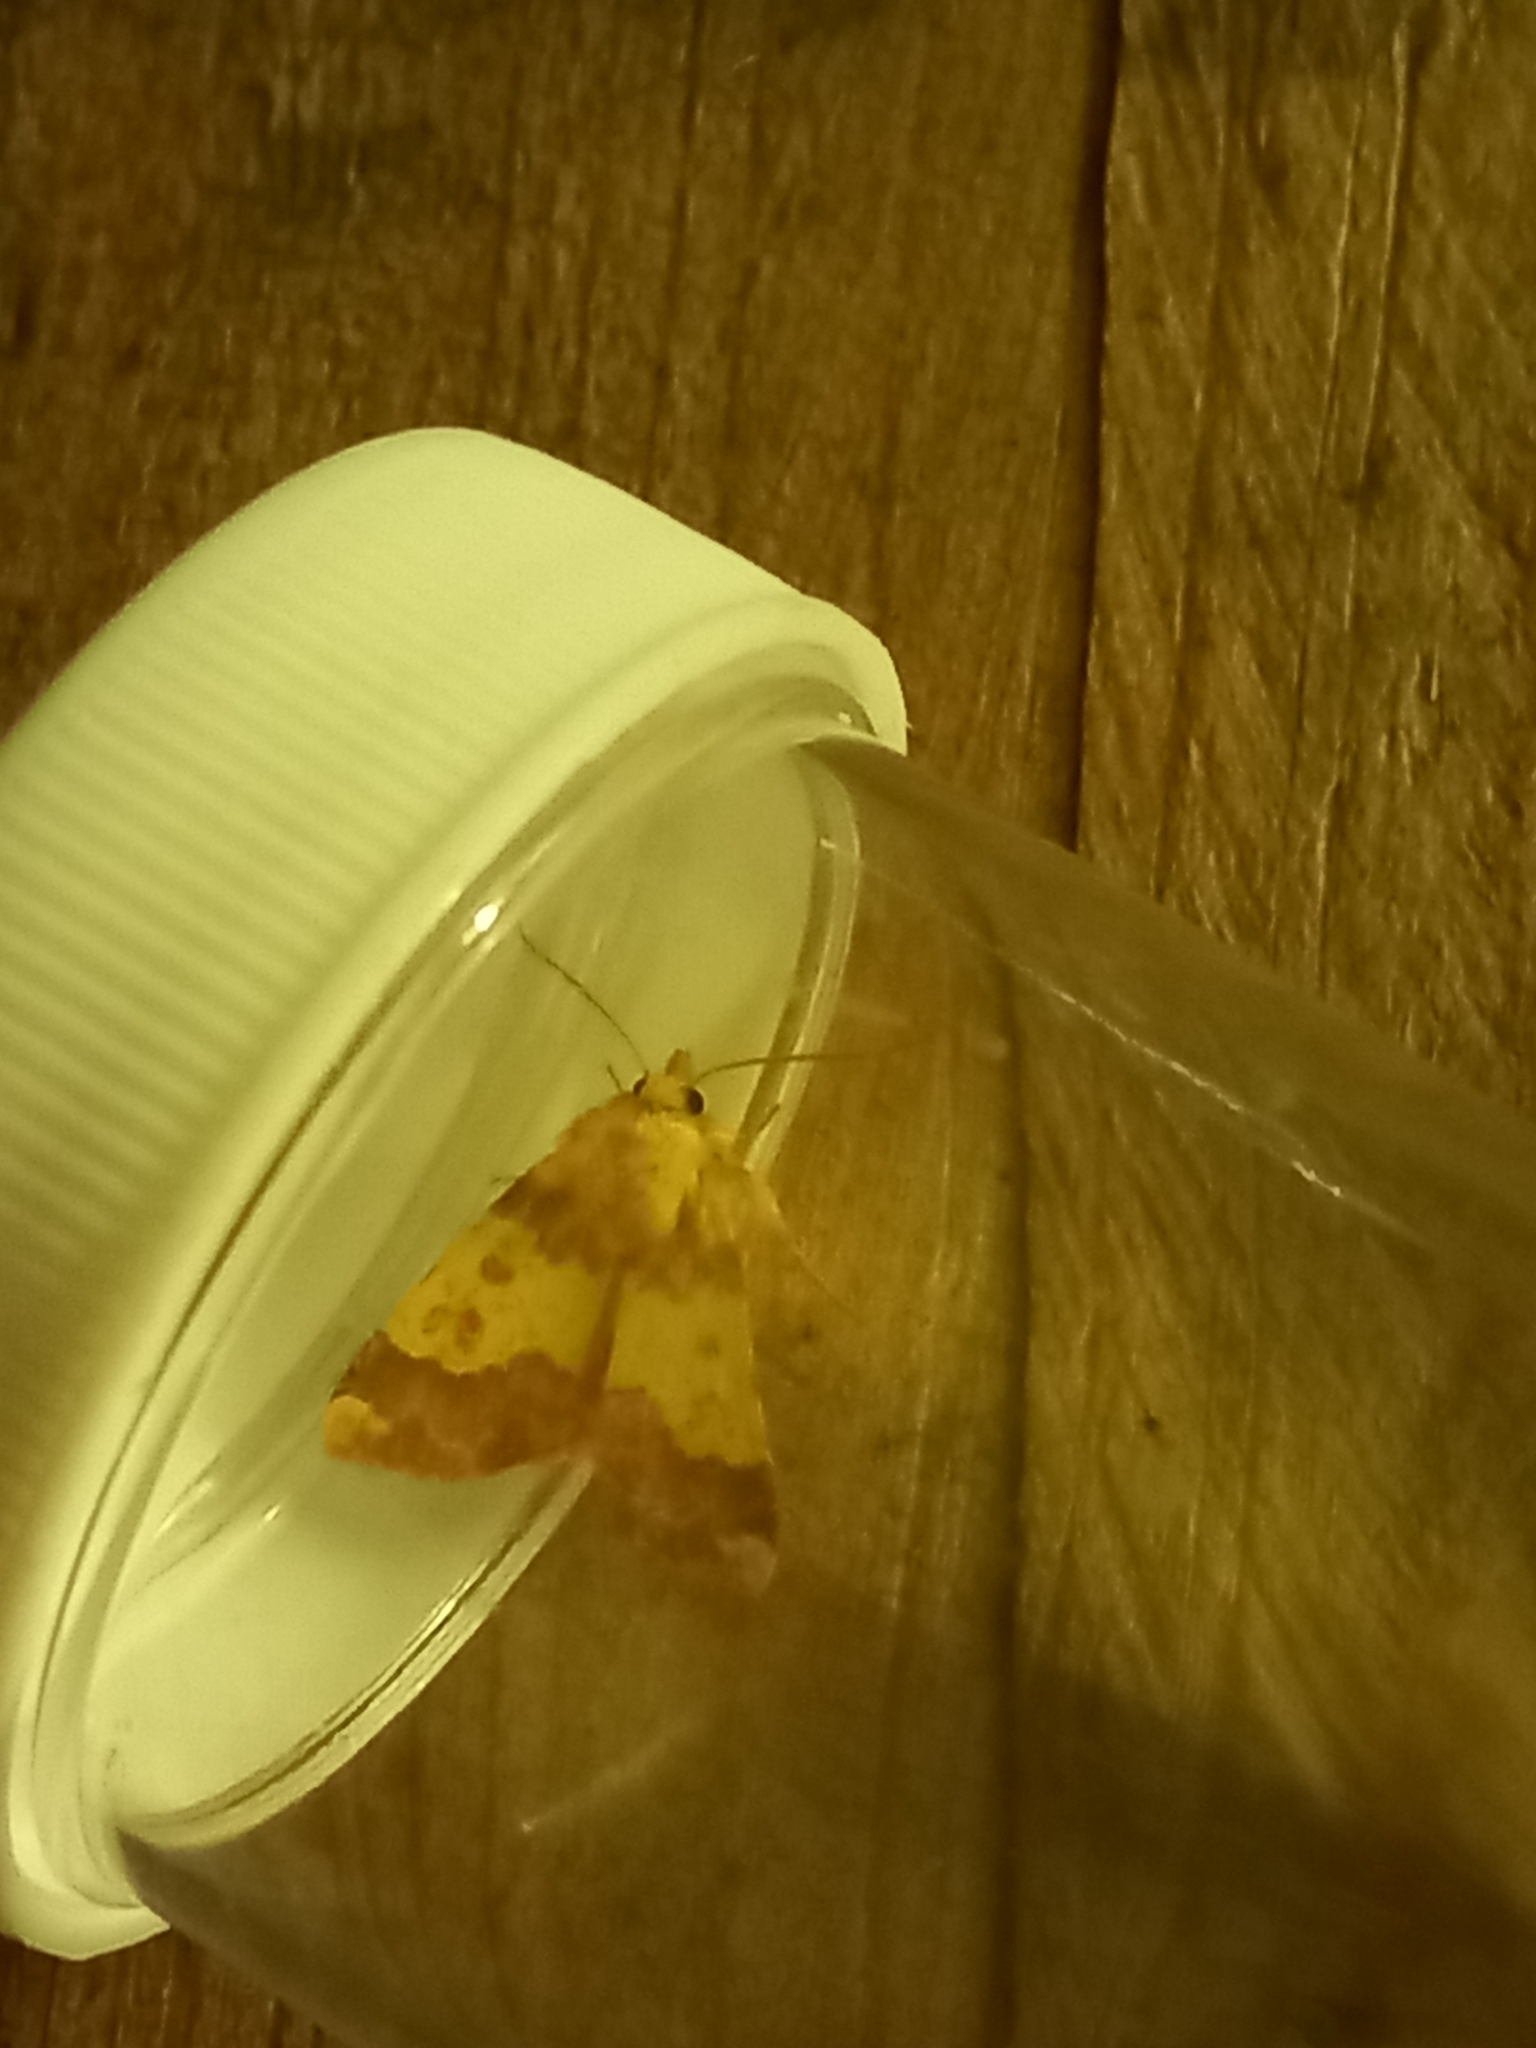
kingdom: Animalia
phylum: Arthropoda
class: Insecta
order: Lepidoptera
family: Noctuidae
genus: Tiliacea
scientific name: Tiliacea aurago
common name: Barred sallow
